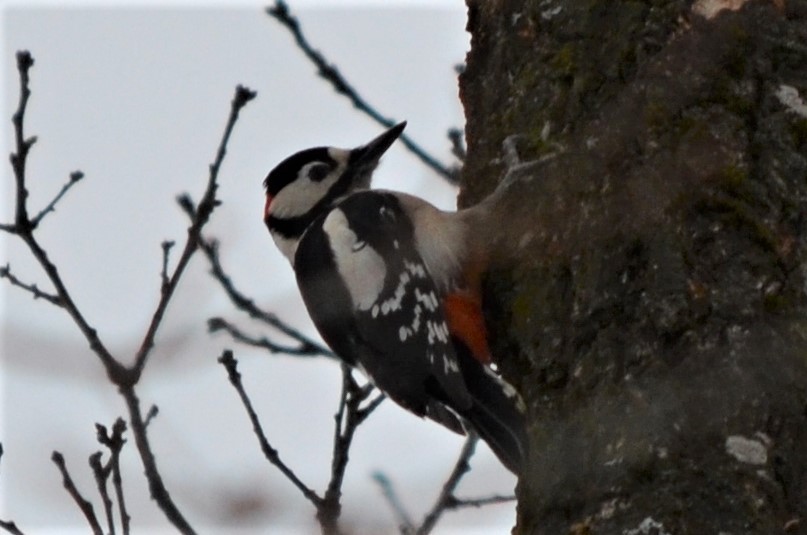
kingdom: Animalia
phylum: Chordata
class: Aves
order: Piciformes
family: Picidae
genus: Dendrocopos
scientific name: Dendrocopos major
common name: Great spotted woodpecker
